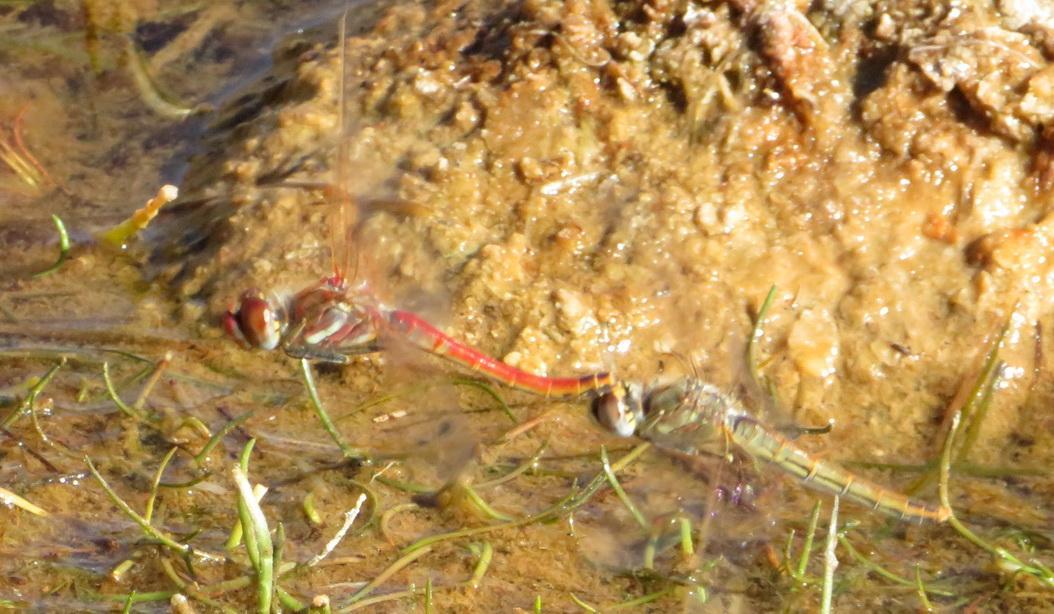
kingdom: Animalia
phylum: Arthropoda
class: Insecta
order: Odonata
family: Libellulidae
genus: Sympetrum
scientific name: Sympetrum fonscolombii
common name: Red-veined darter
